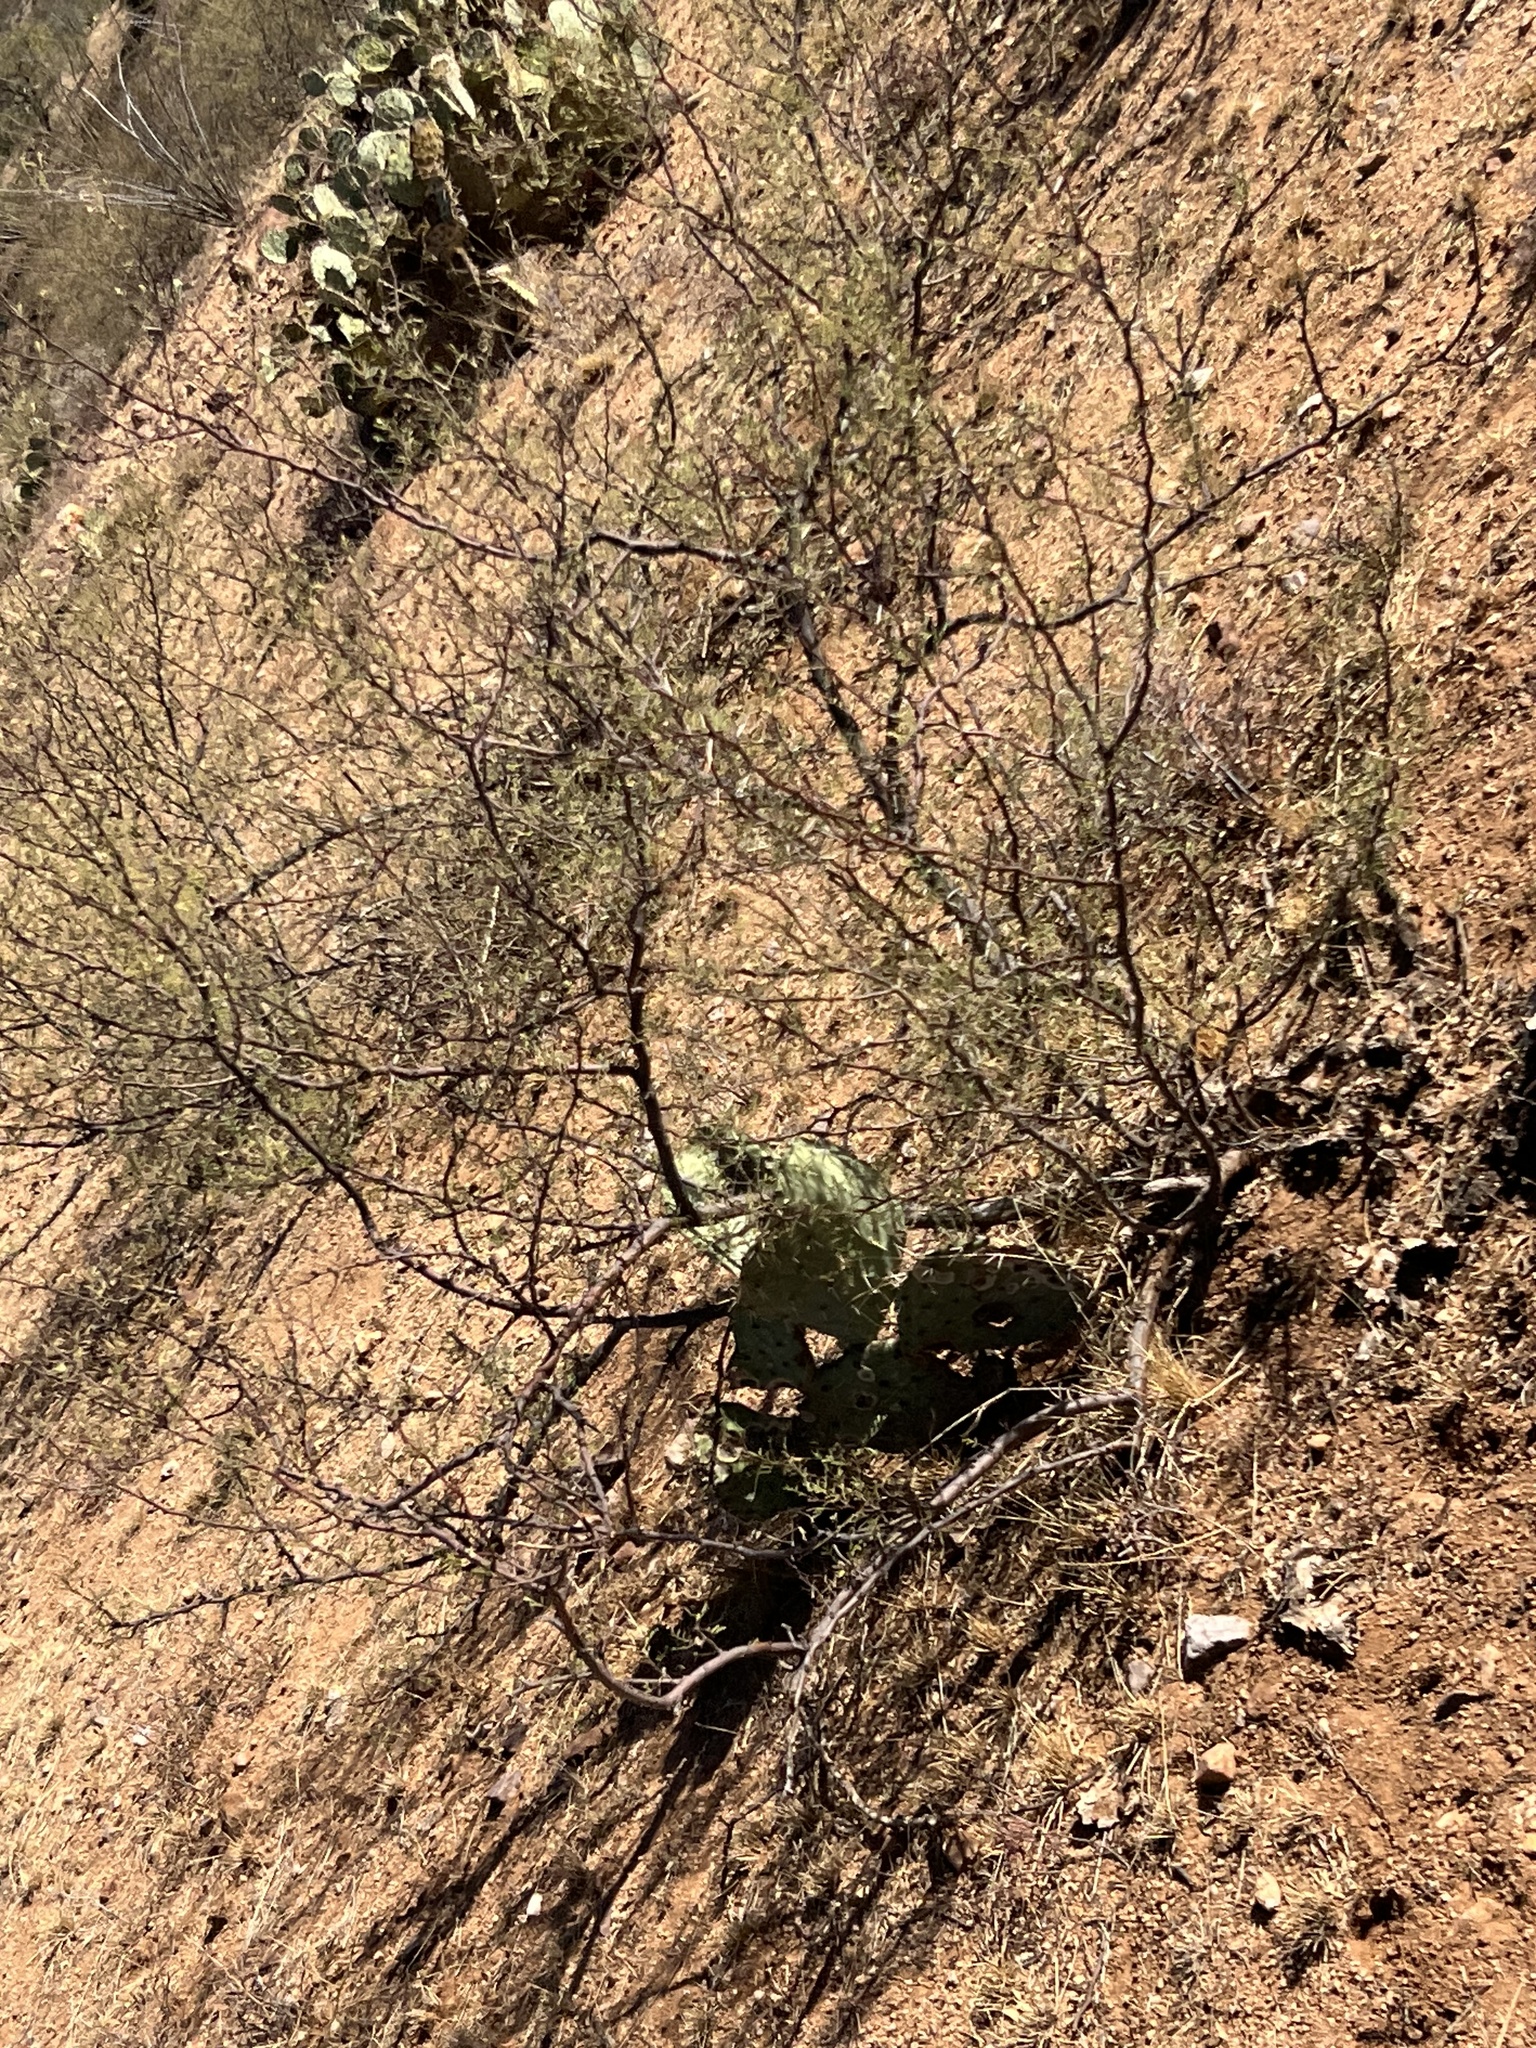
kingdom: Plantae
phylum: Tracheophyta
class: Magnoliopsida
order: Caryophyllales
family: Cactaceae
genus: Echinocereus
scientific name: Echinocereus fasciculatus
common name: Bundle hedgehog
